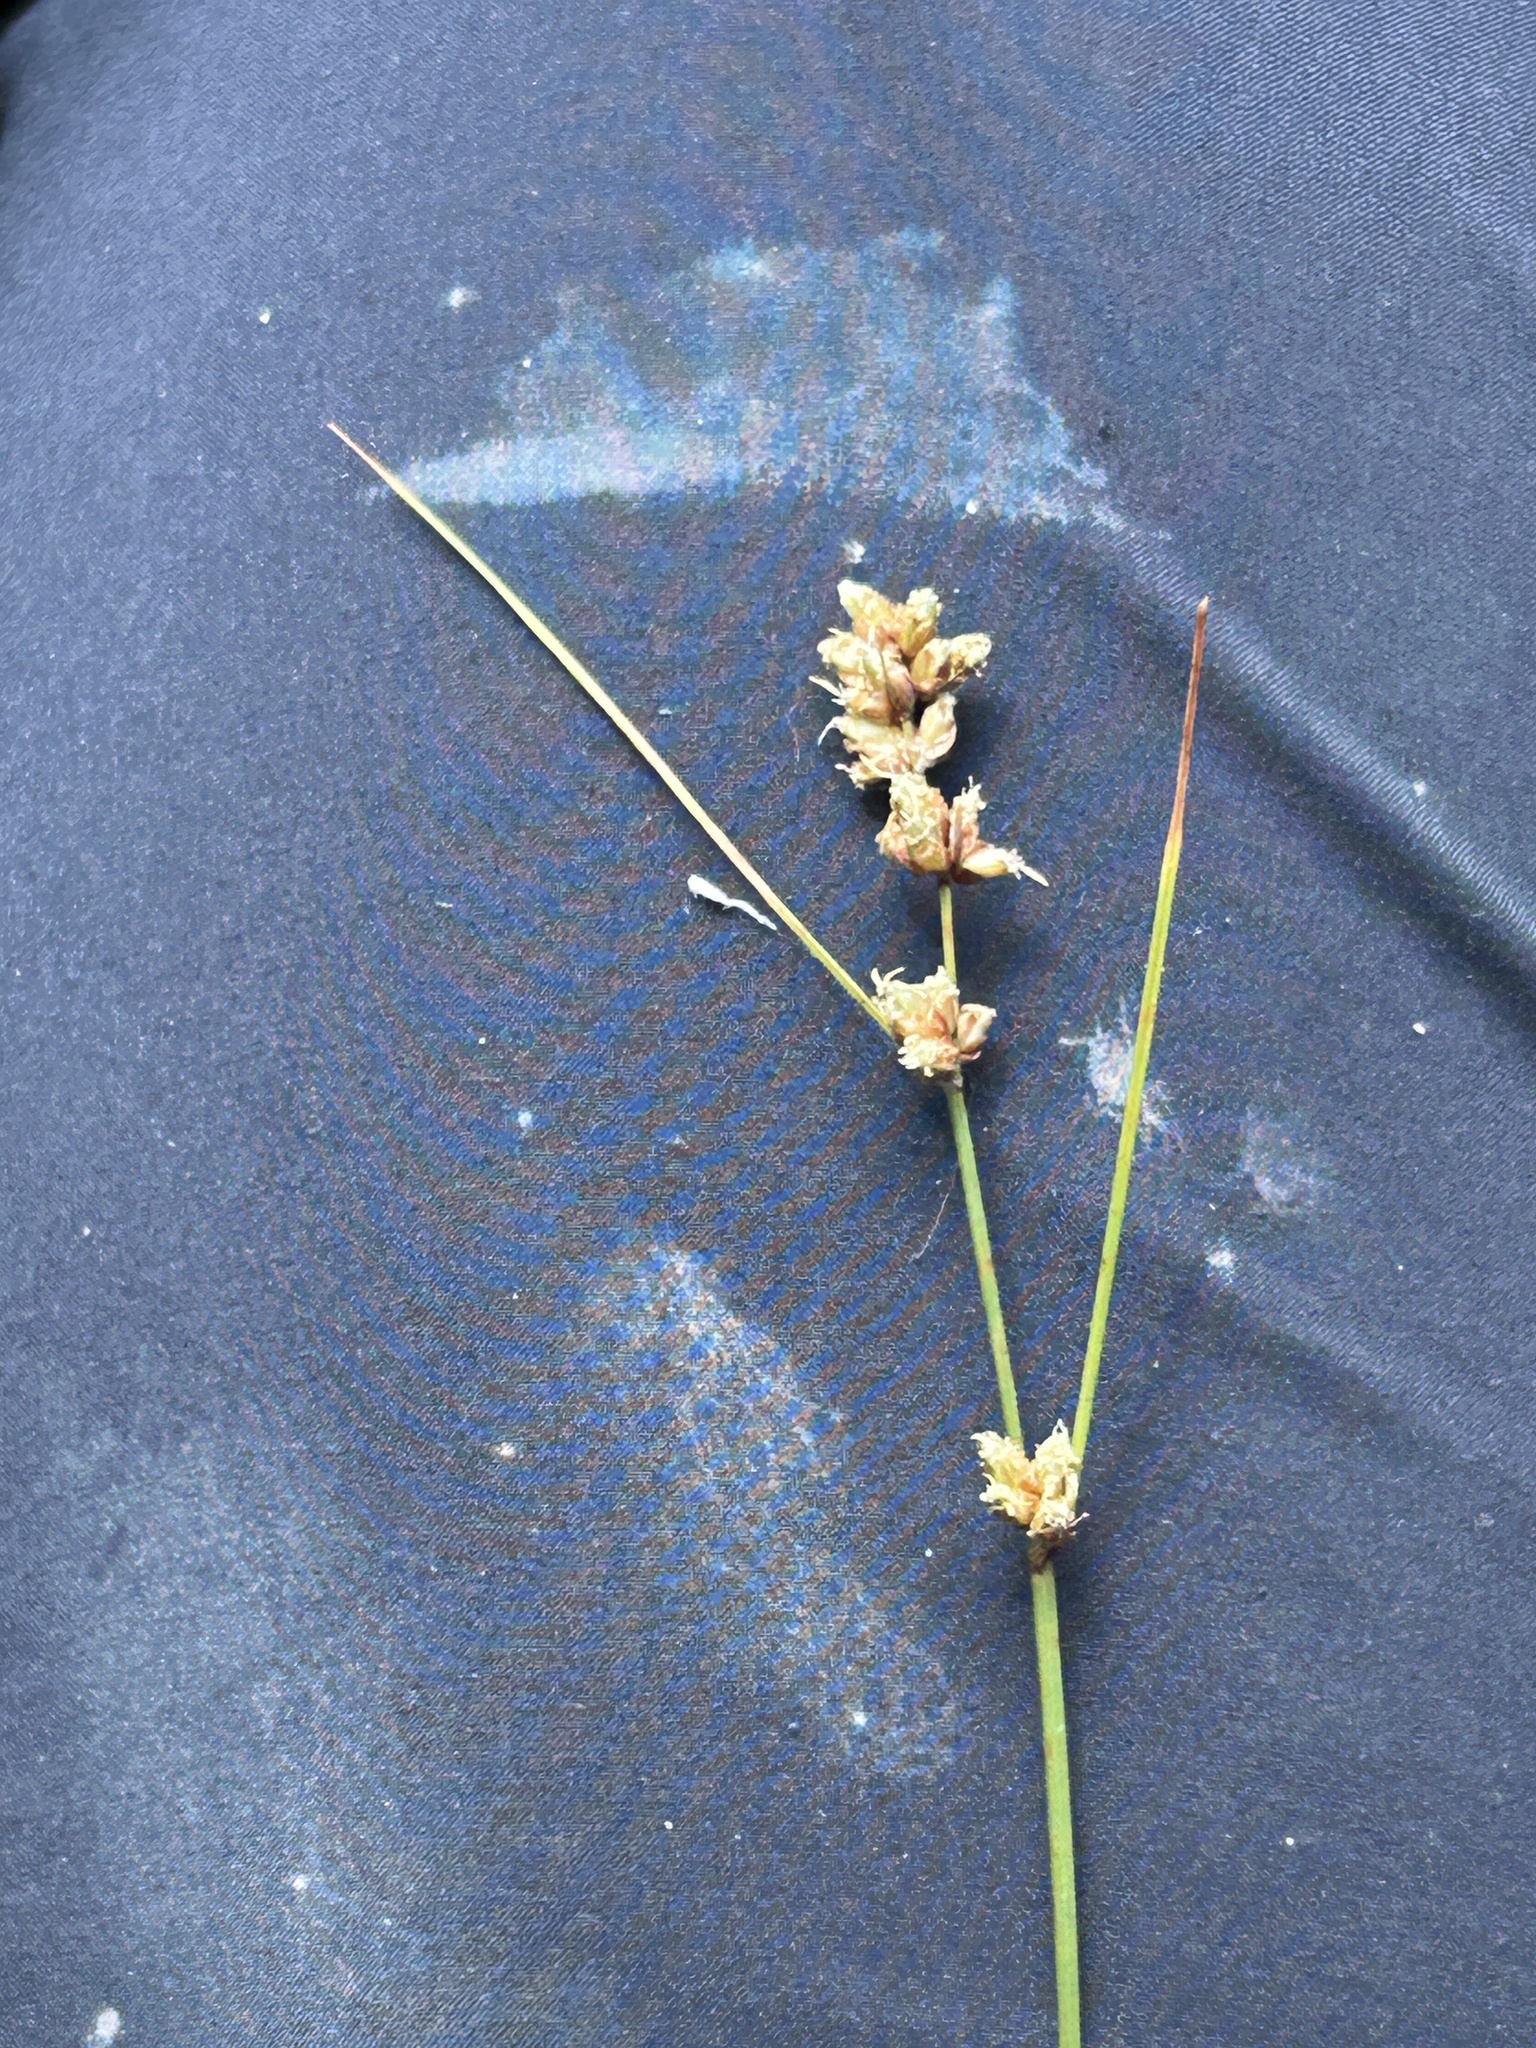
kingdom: Plantae
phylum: Tracheophyta
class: Liliopsida
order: Poales
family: Cyperaceae
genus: Ficinia
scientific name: Ficinia bulbosa
